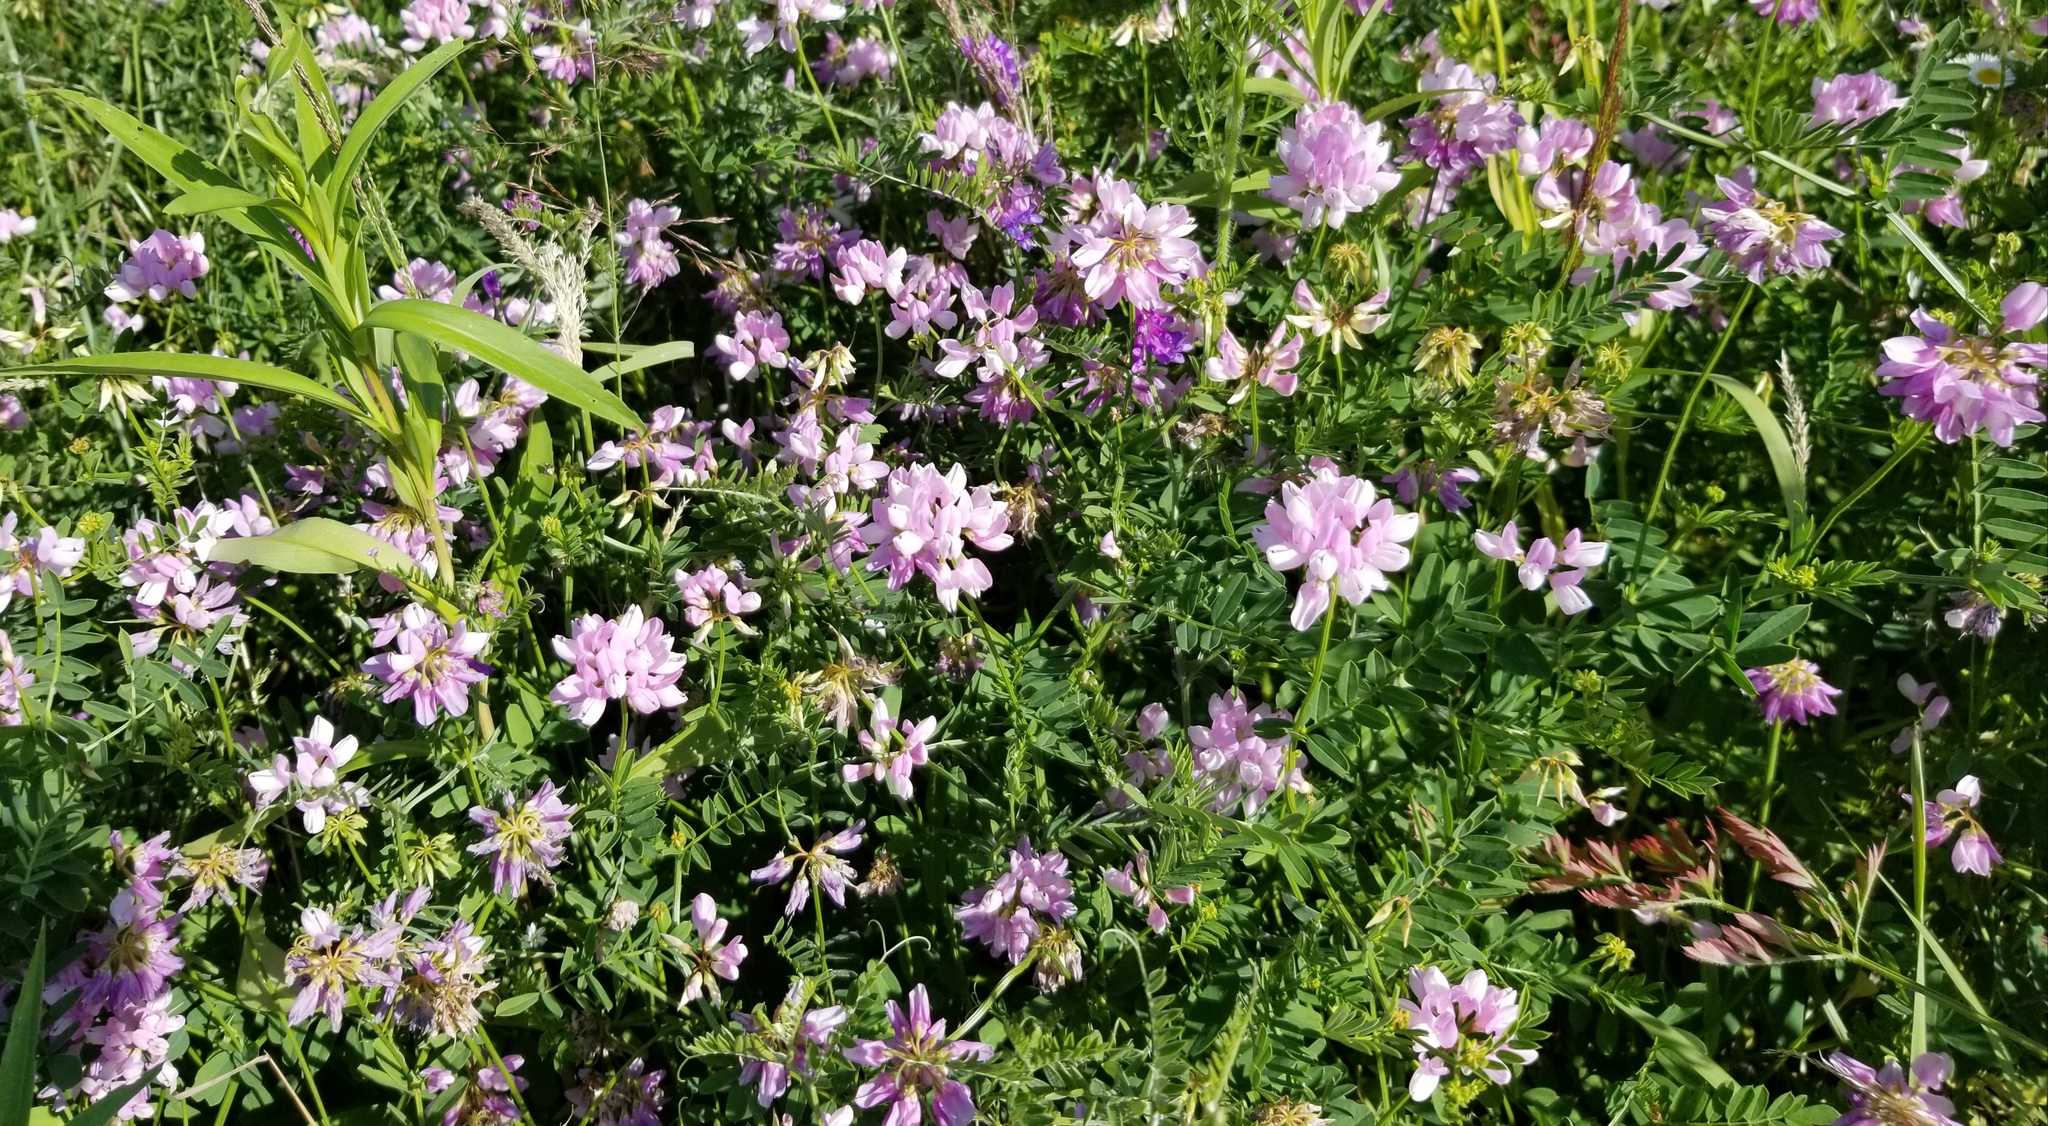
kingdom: Plantae
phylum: Tracheophyta
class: Magnoliopsida
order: Fabales
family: Fabaceae
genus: Coronilla
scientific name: Coronilla varia
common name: Crownvetch
